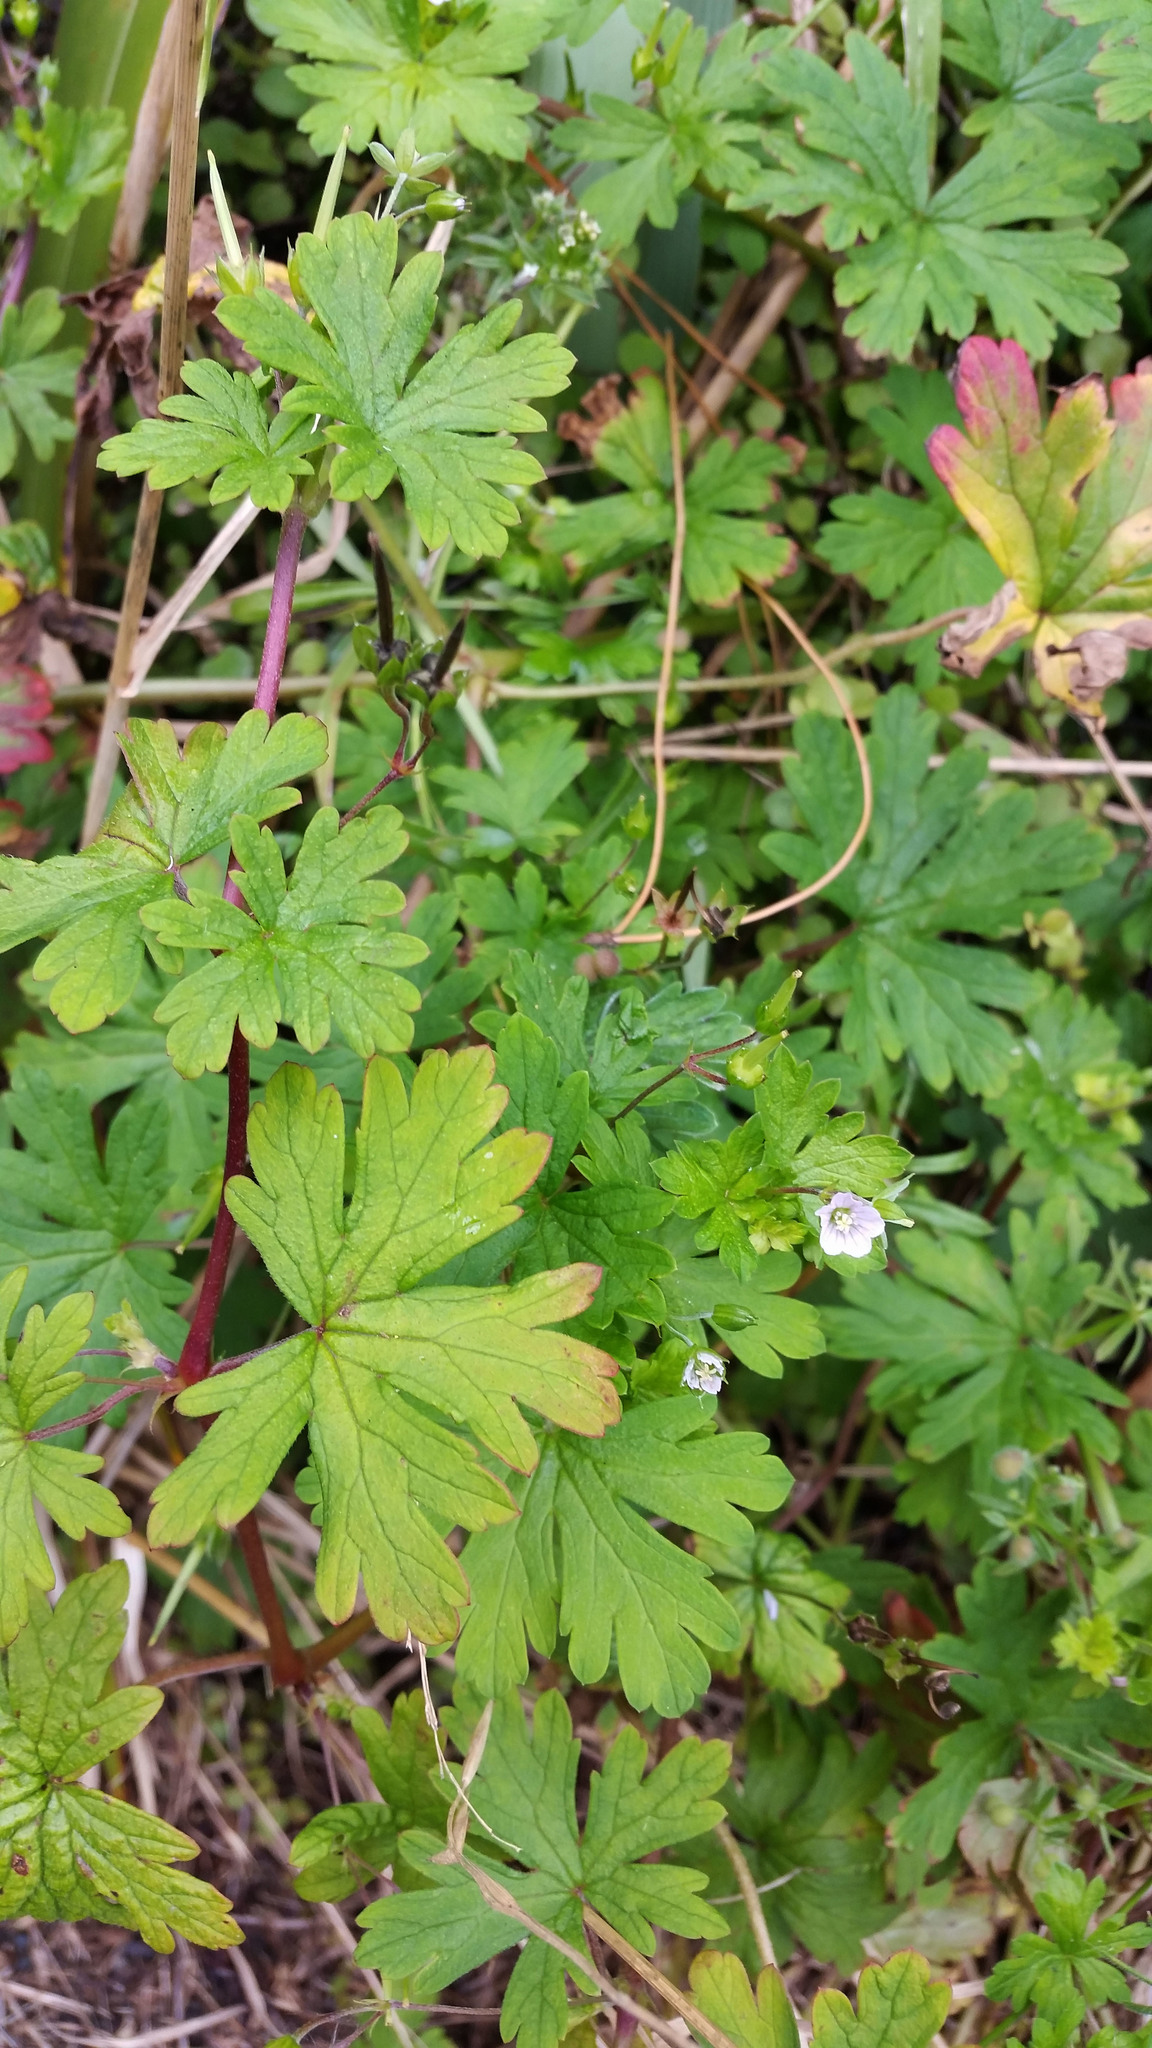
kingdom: Plantae
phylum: Tracheophyta
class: Magnoliopsida
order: Geraniales
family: Geraniaceae
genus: Geranium
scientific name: Geranium homeanum
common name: Australasian geranium
